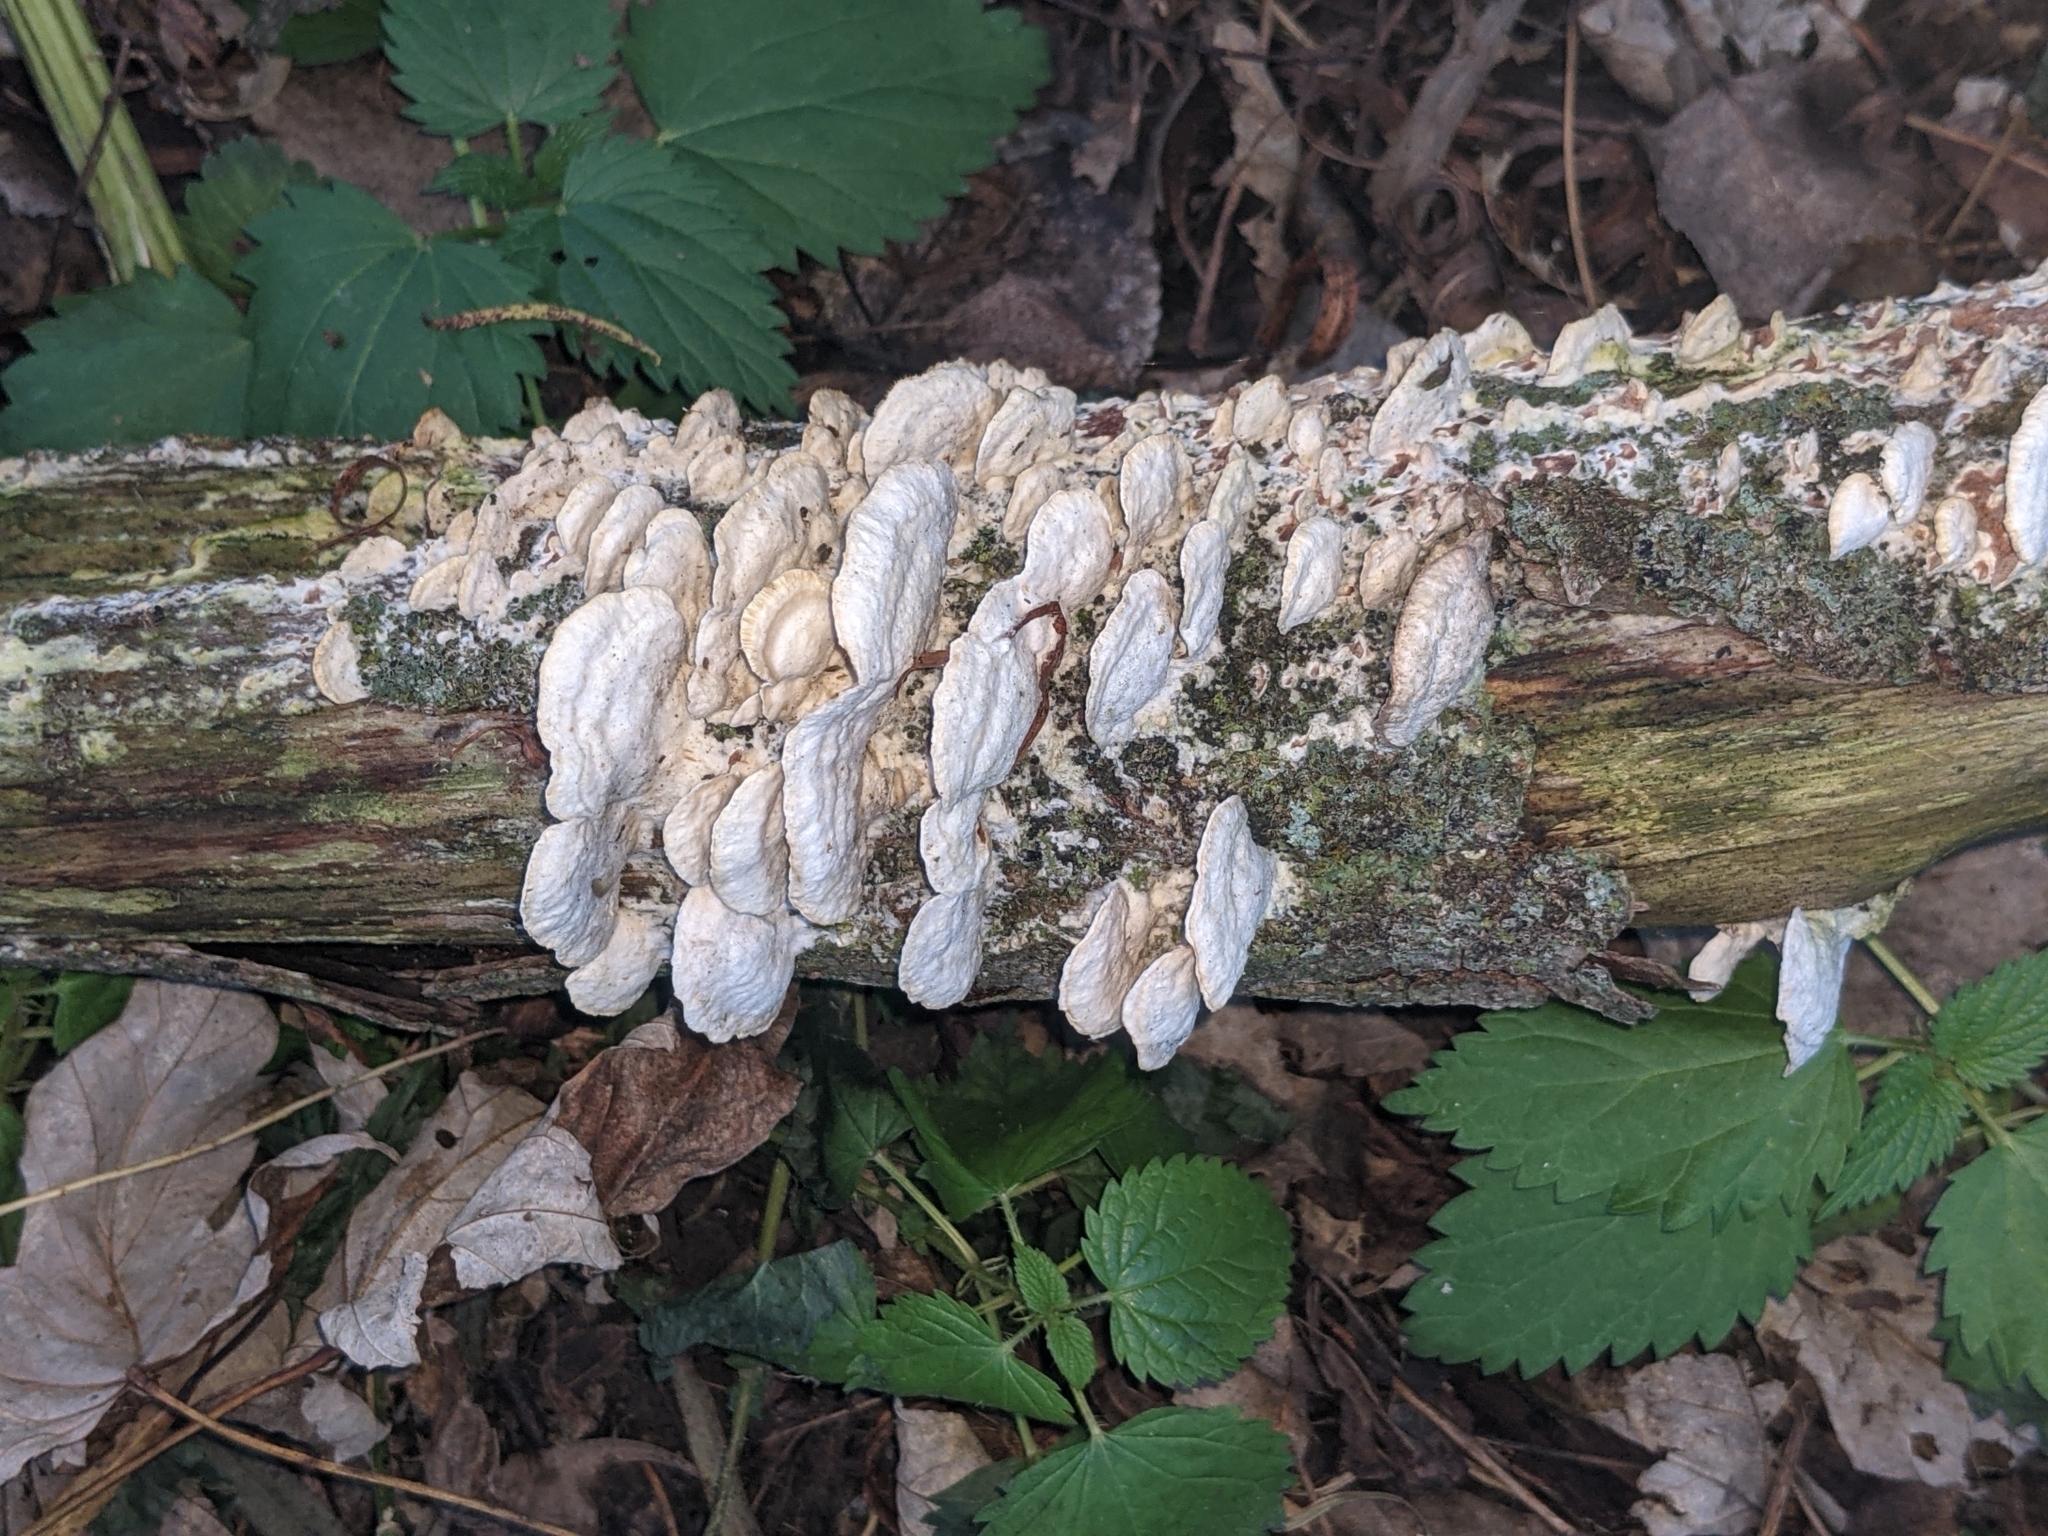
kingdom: Fungi
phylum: Basidiomycota
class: Agaricomycetes
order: Polyporales
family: Irpicaceae
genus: Vitreoporus
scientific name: Vitreoporus dichrous
